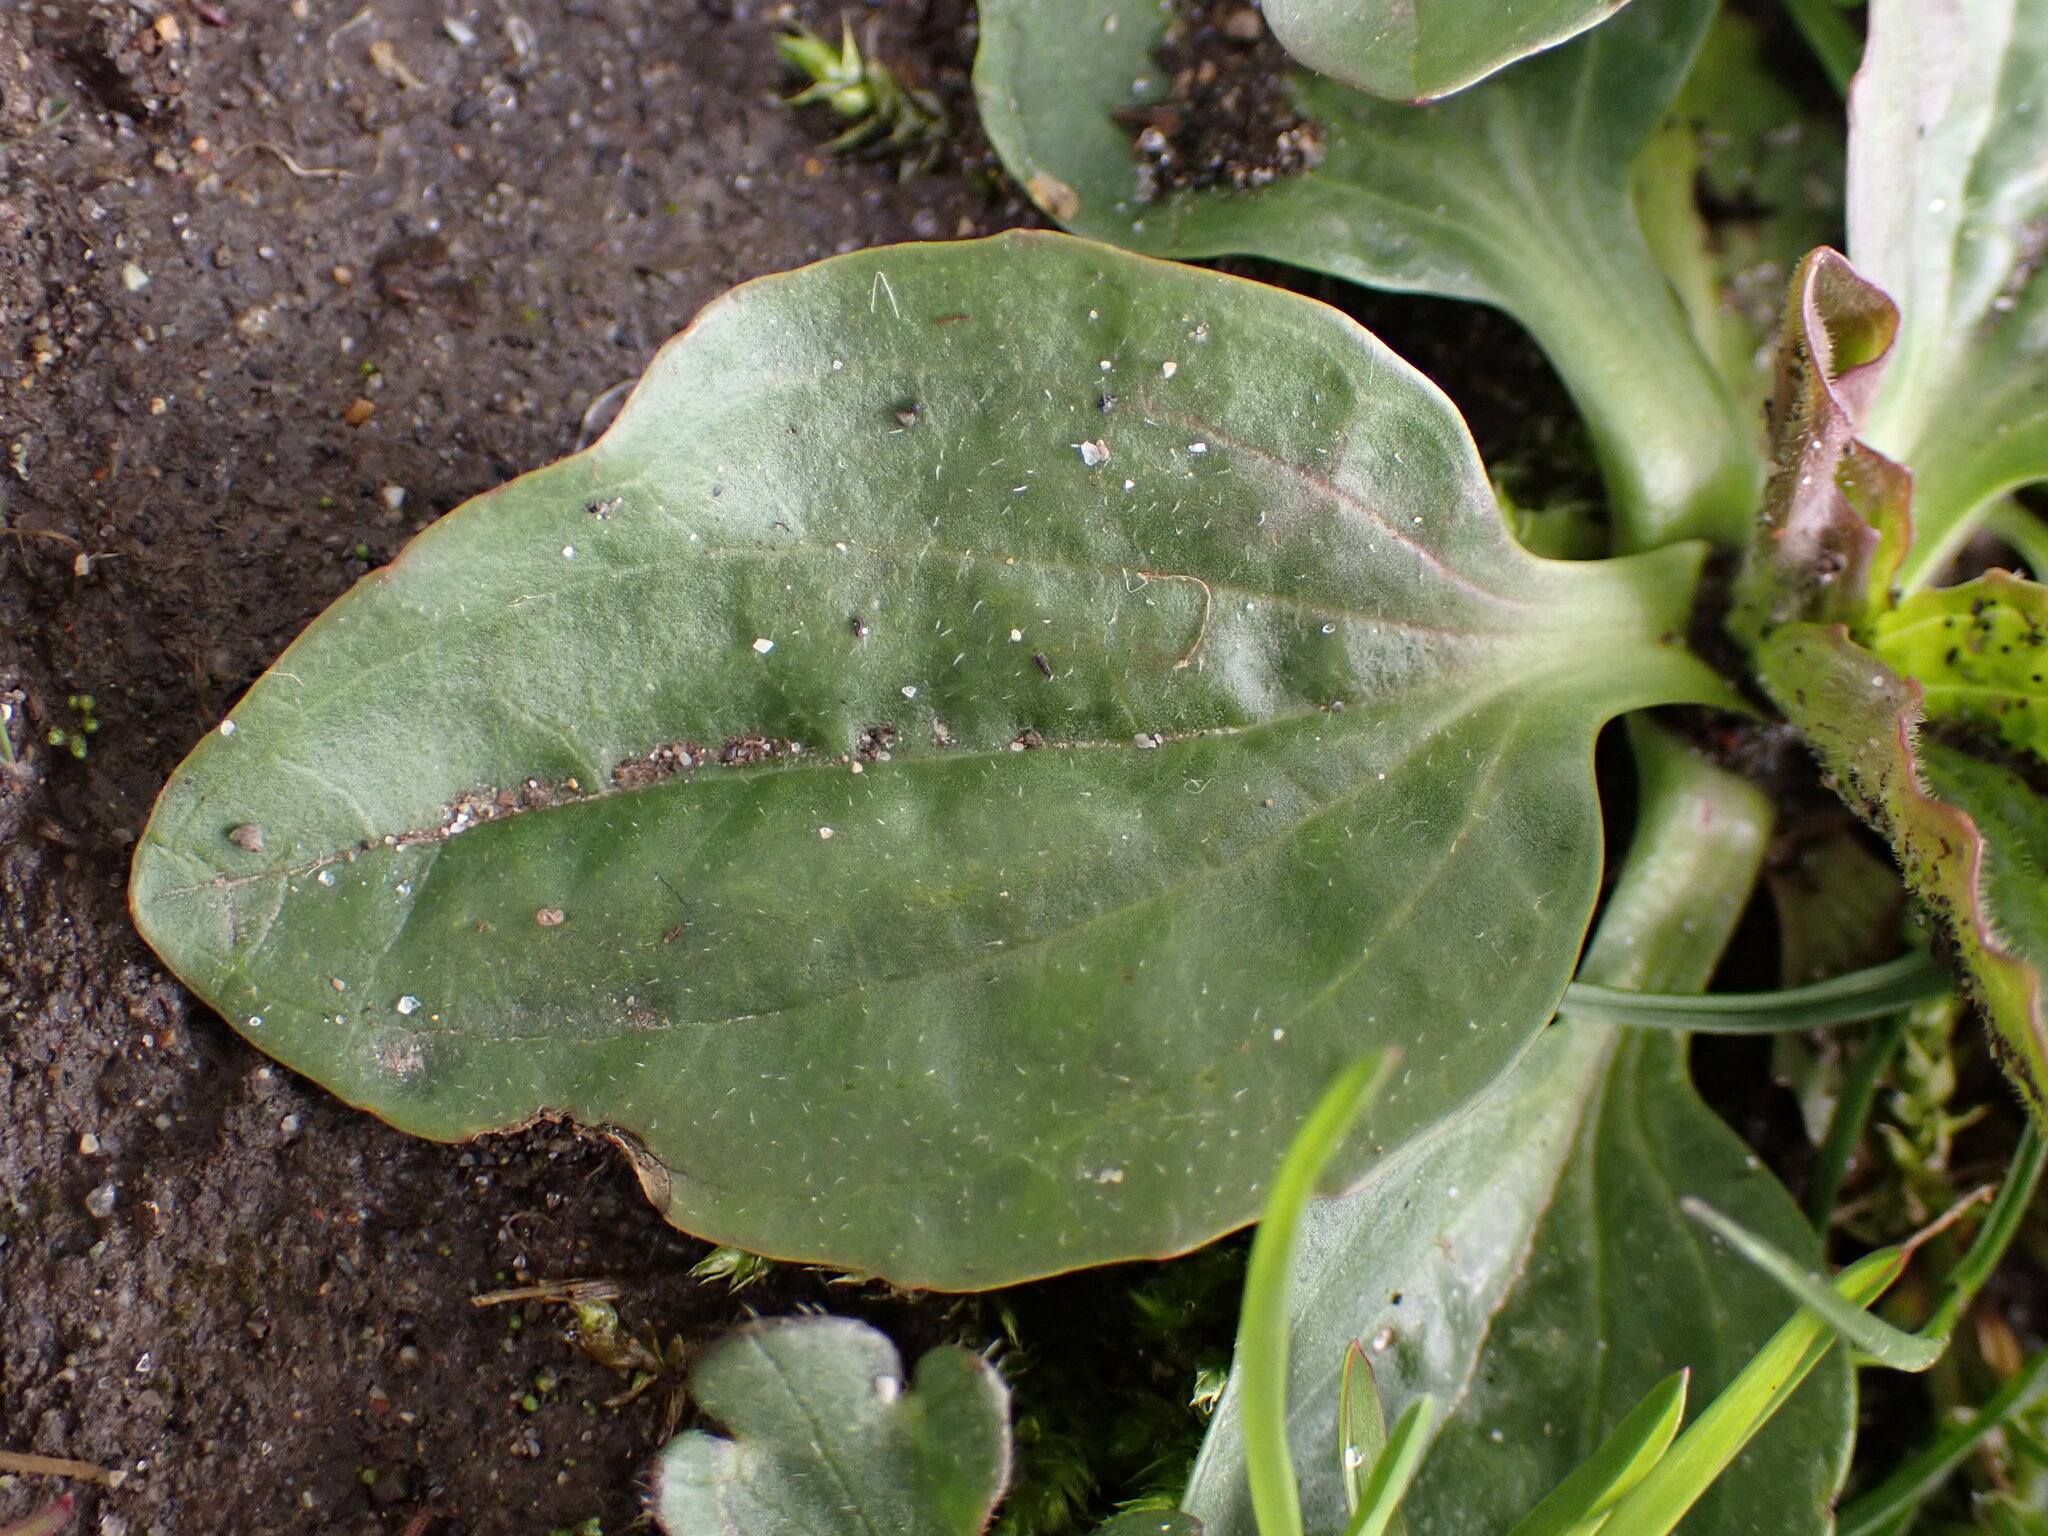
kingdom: Plantae
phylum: Tracheophyta
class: Magnoliopsida
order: Lamiales
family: Plantaginaceae
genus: Plantago
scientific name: Plantago major
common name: Common plantain
